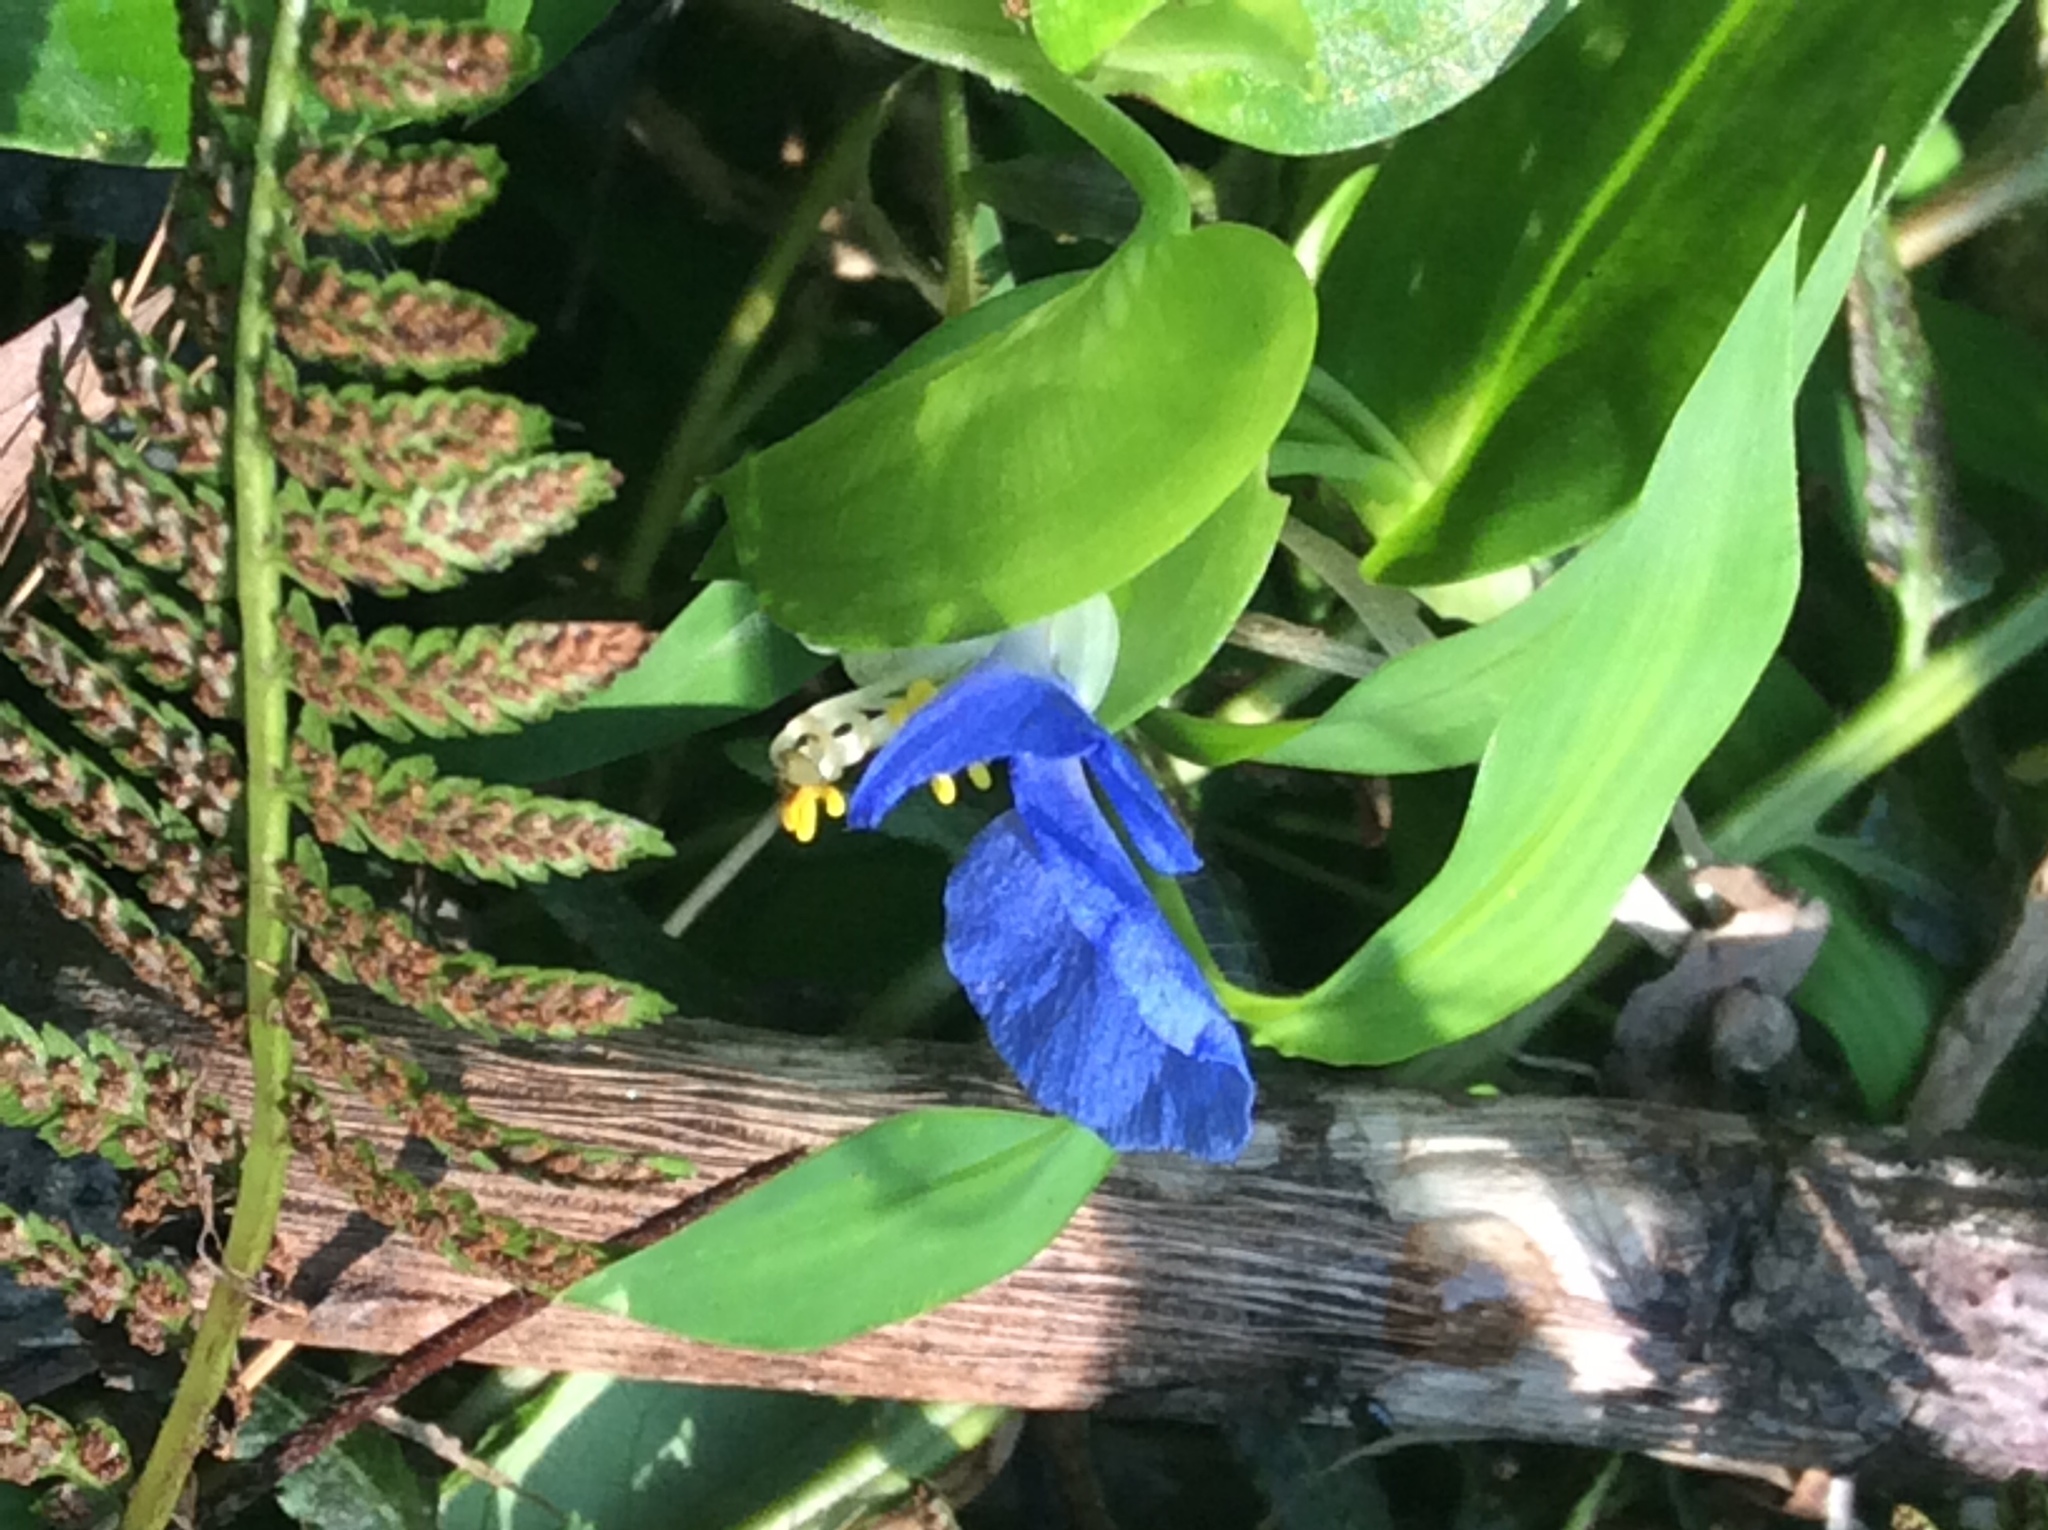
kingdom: Plantae
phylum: Tracheophyta
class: Liliopsida
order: Commelinales
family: Commelinaceae
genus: Commelina
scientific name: Commelina communis
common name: Asiatic dayflower
